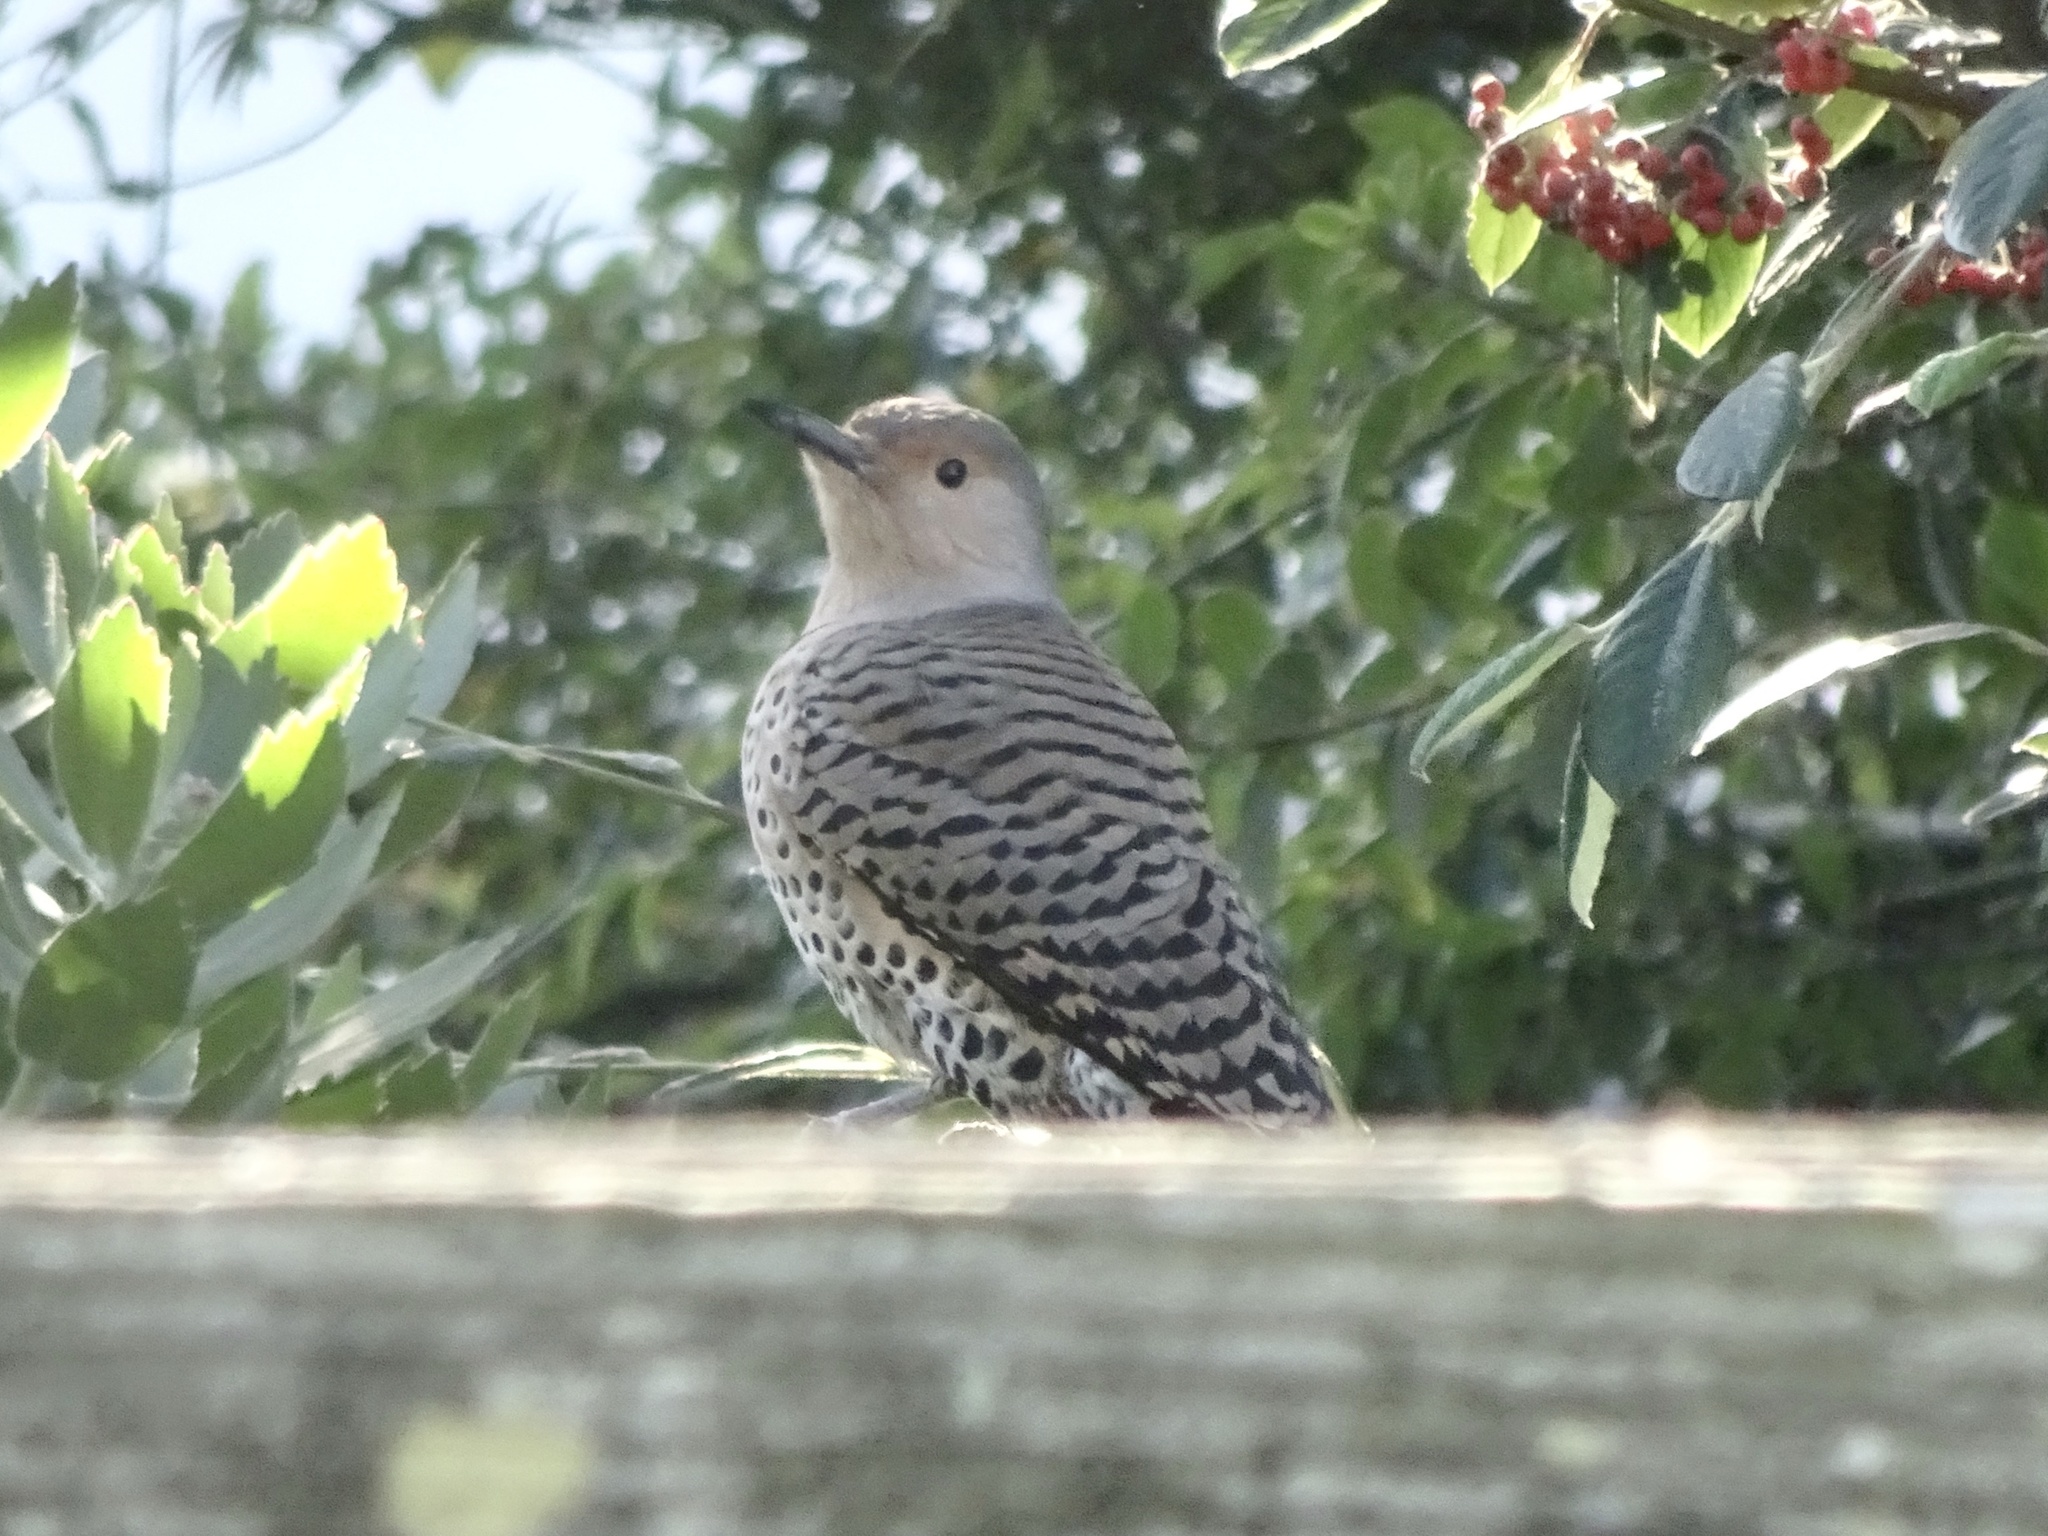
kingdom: Animalia
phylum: Chordata
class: Aves
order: Piciformes
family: Picidae
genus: Colaptes
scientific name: Colaptes auratus
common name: Northern flicker
